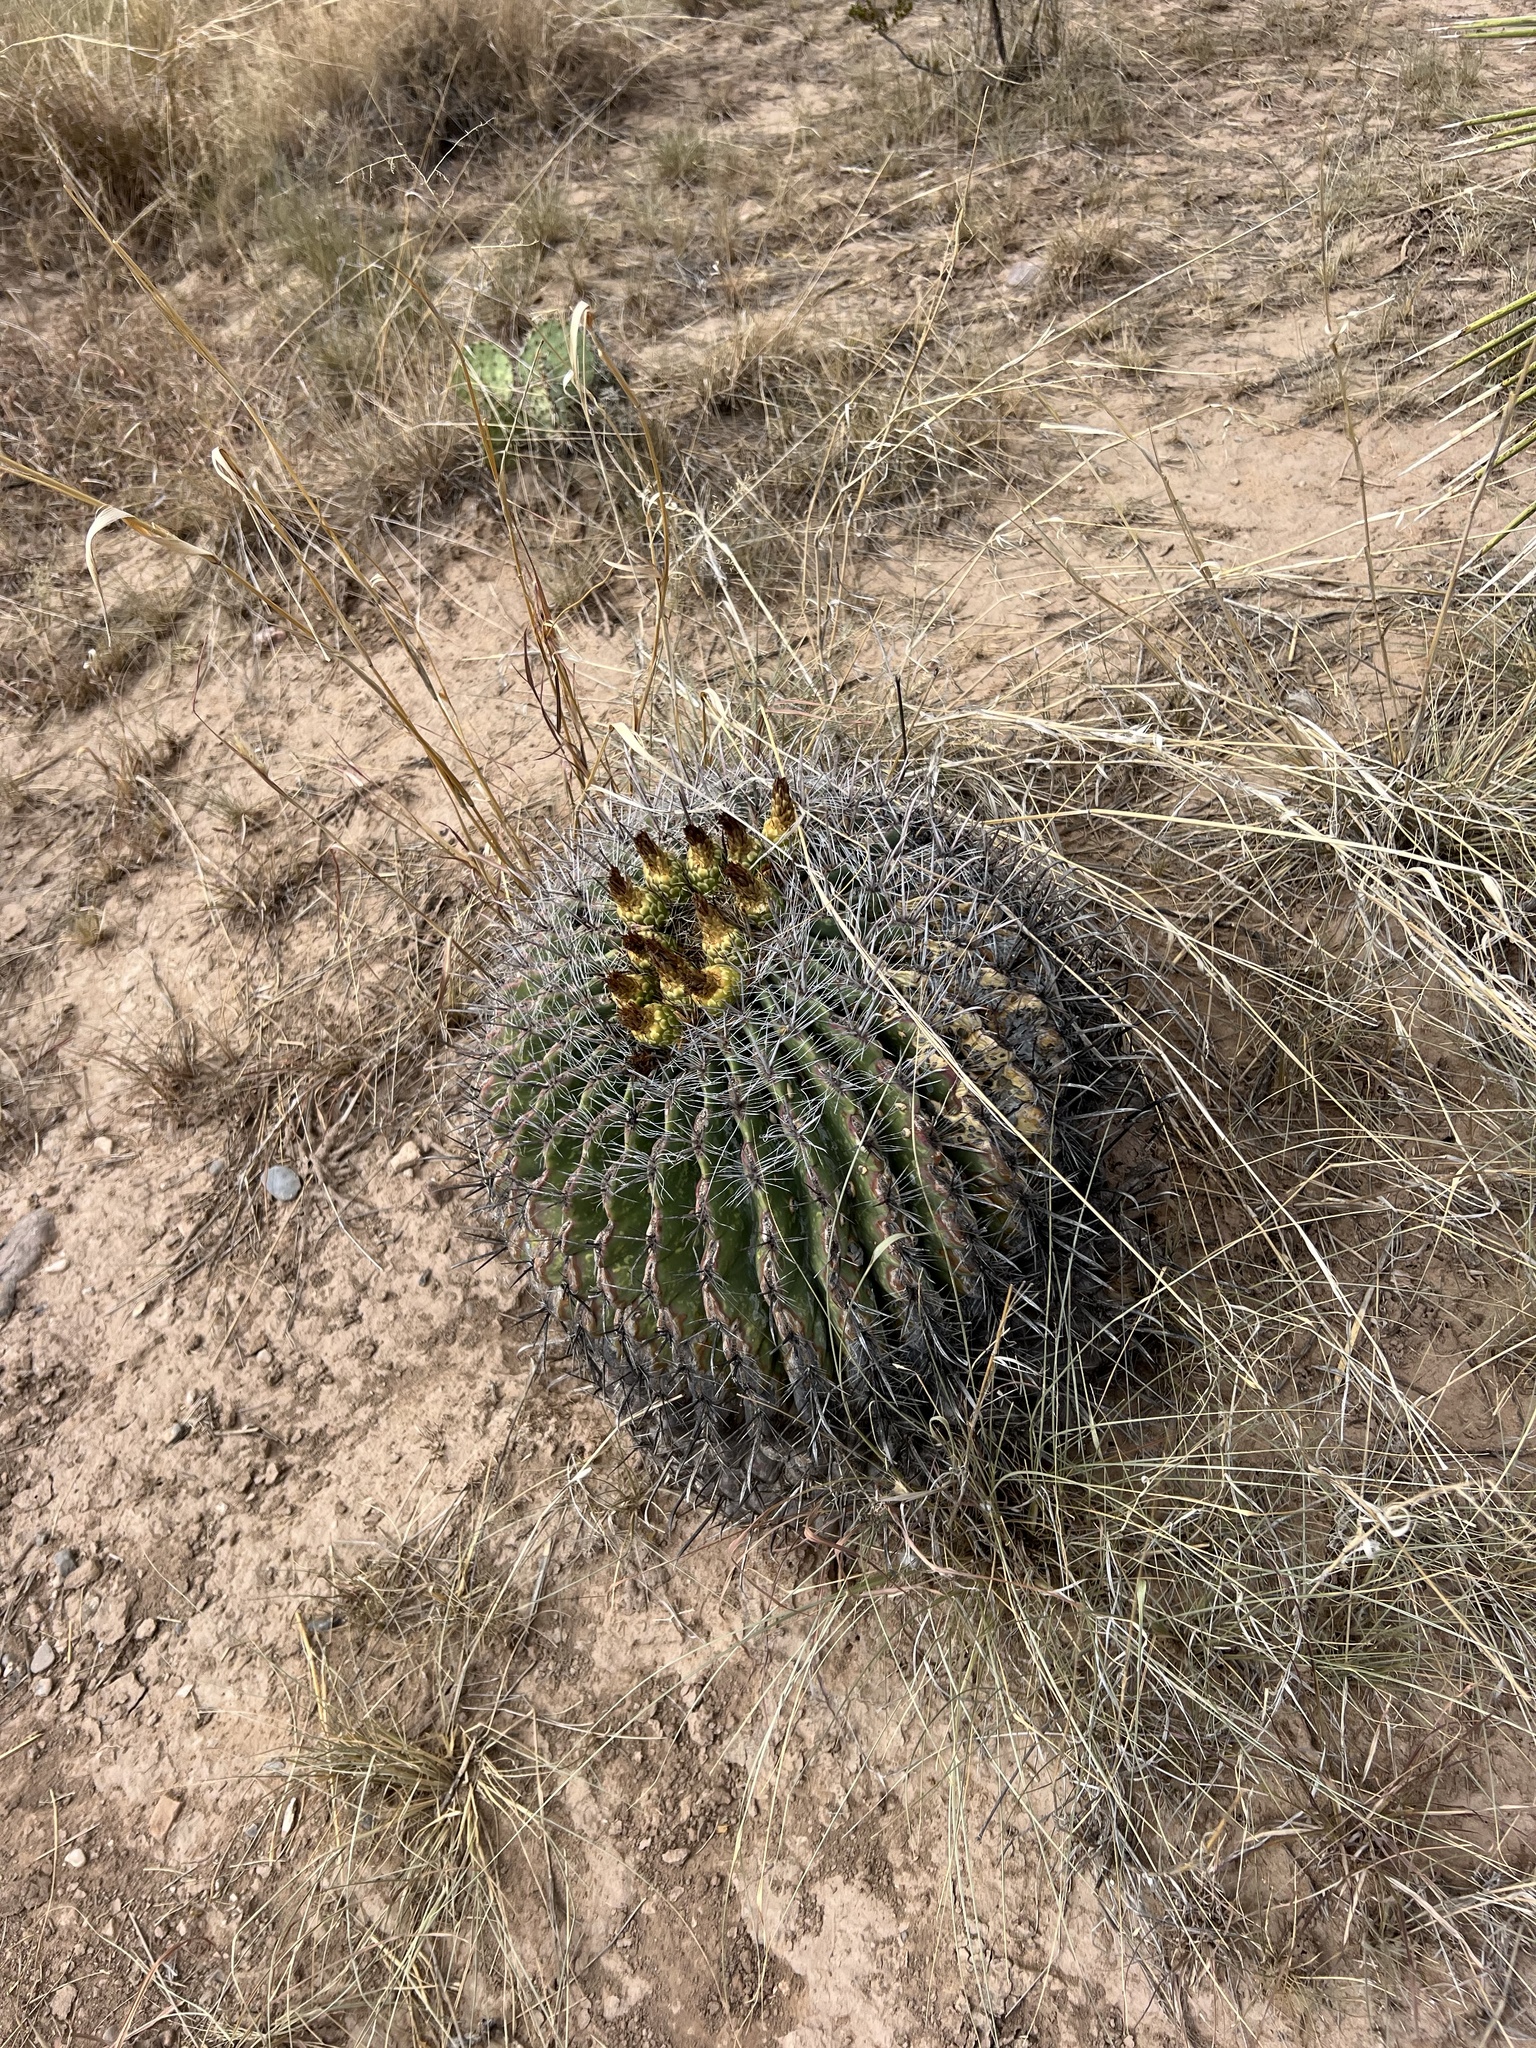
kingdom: Plantae
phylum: Tracheophyta
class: Magnoliopsida
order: Caryophyllales
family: Cactaceae
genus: Ferocactus
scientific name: Ferocactus wislizeni
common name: Candy barrel cactus
